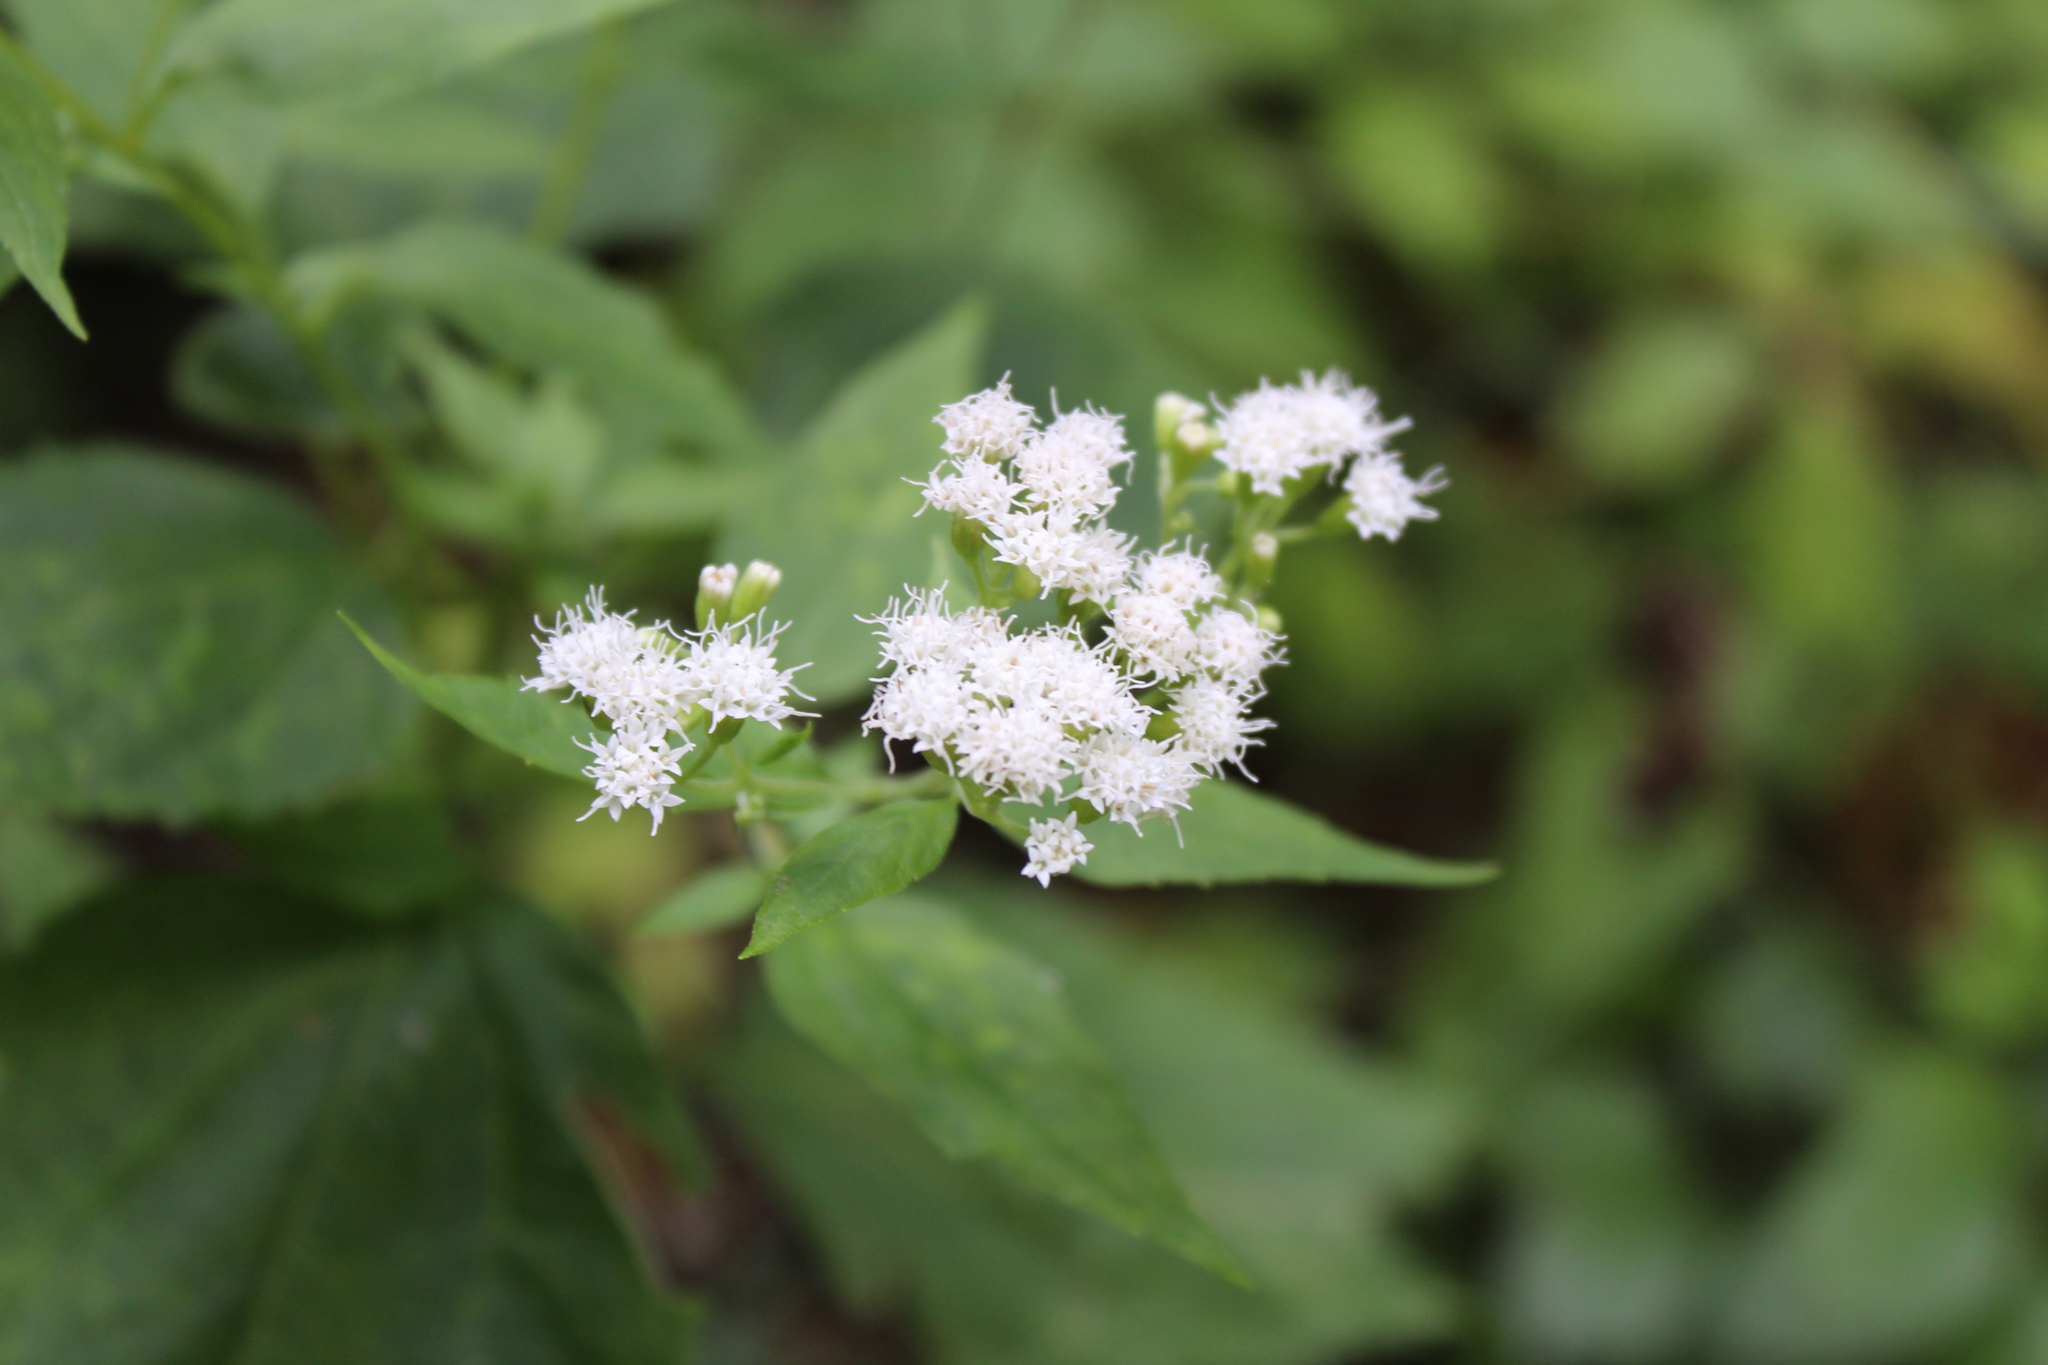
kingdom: Plantae
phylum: Tracheophyta
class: Magnoliopsida
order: Asterales
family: Asteraceae
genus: Ageratina
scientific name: Ageratina altissima
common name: White snakeroot
